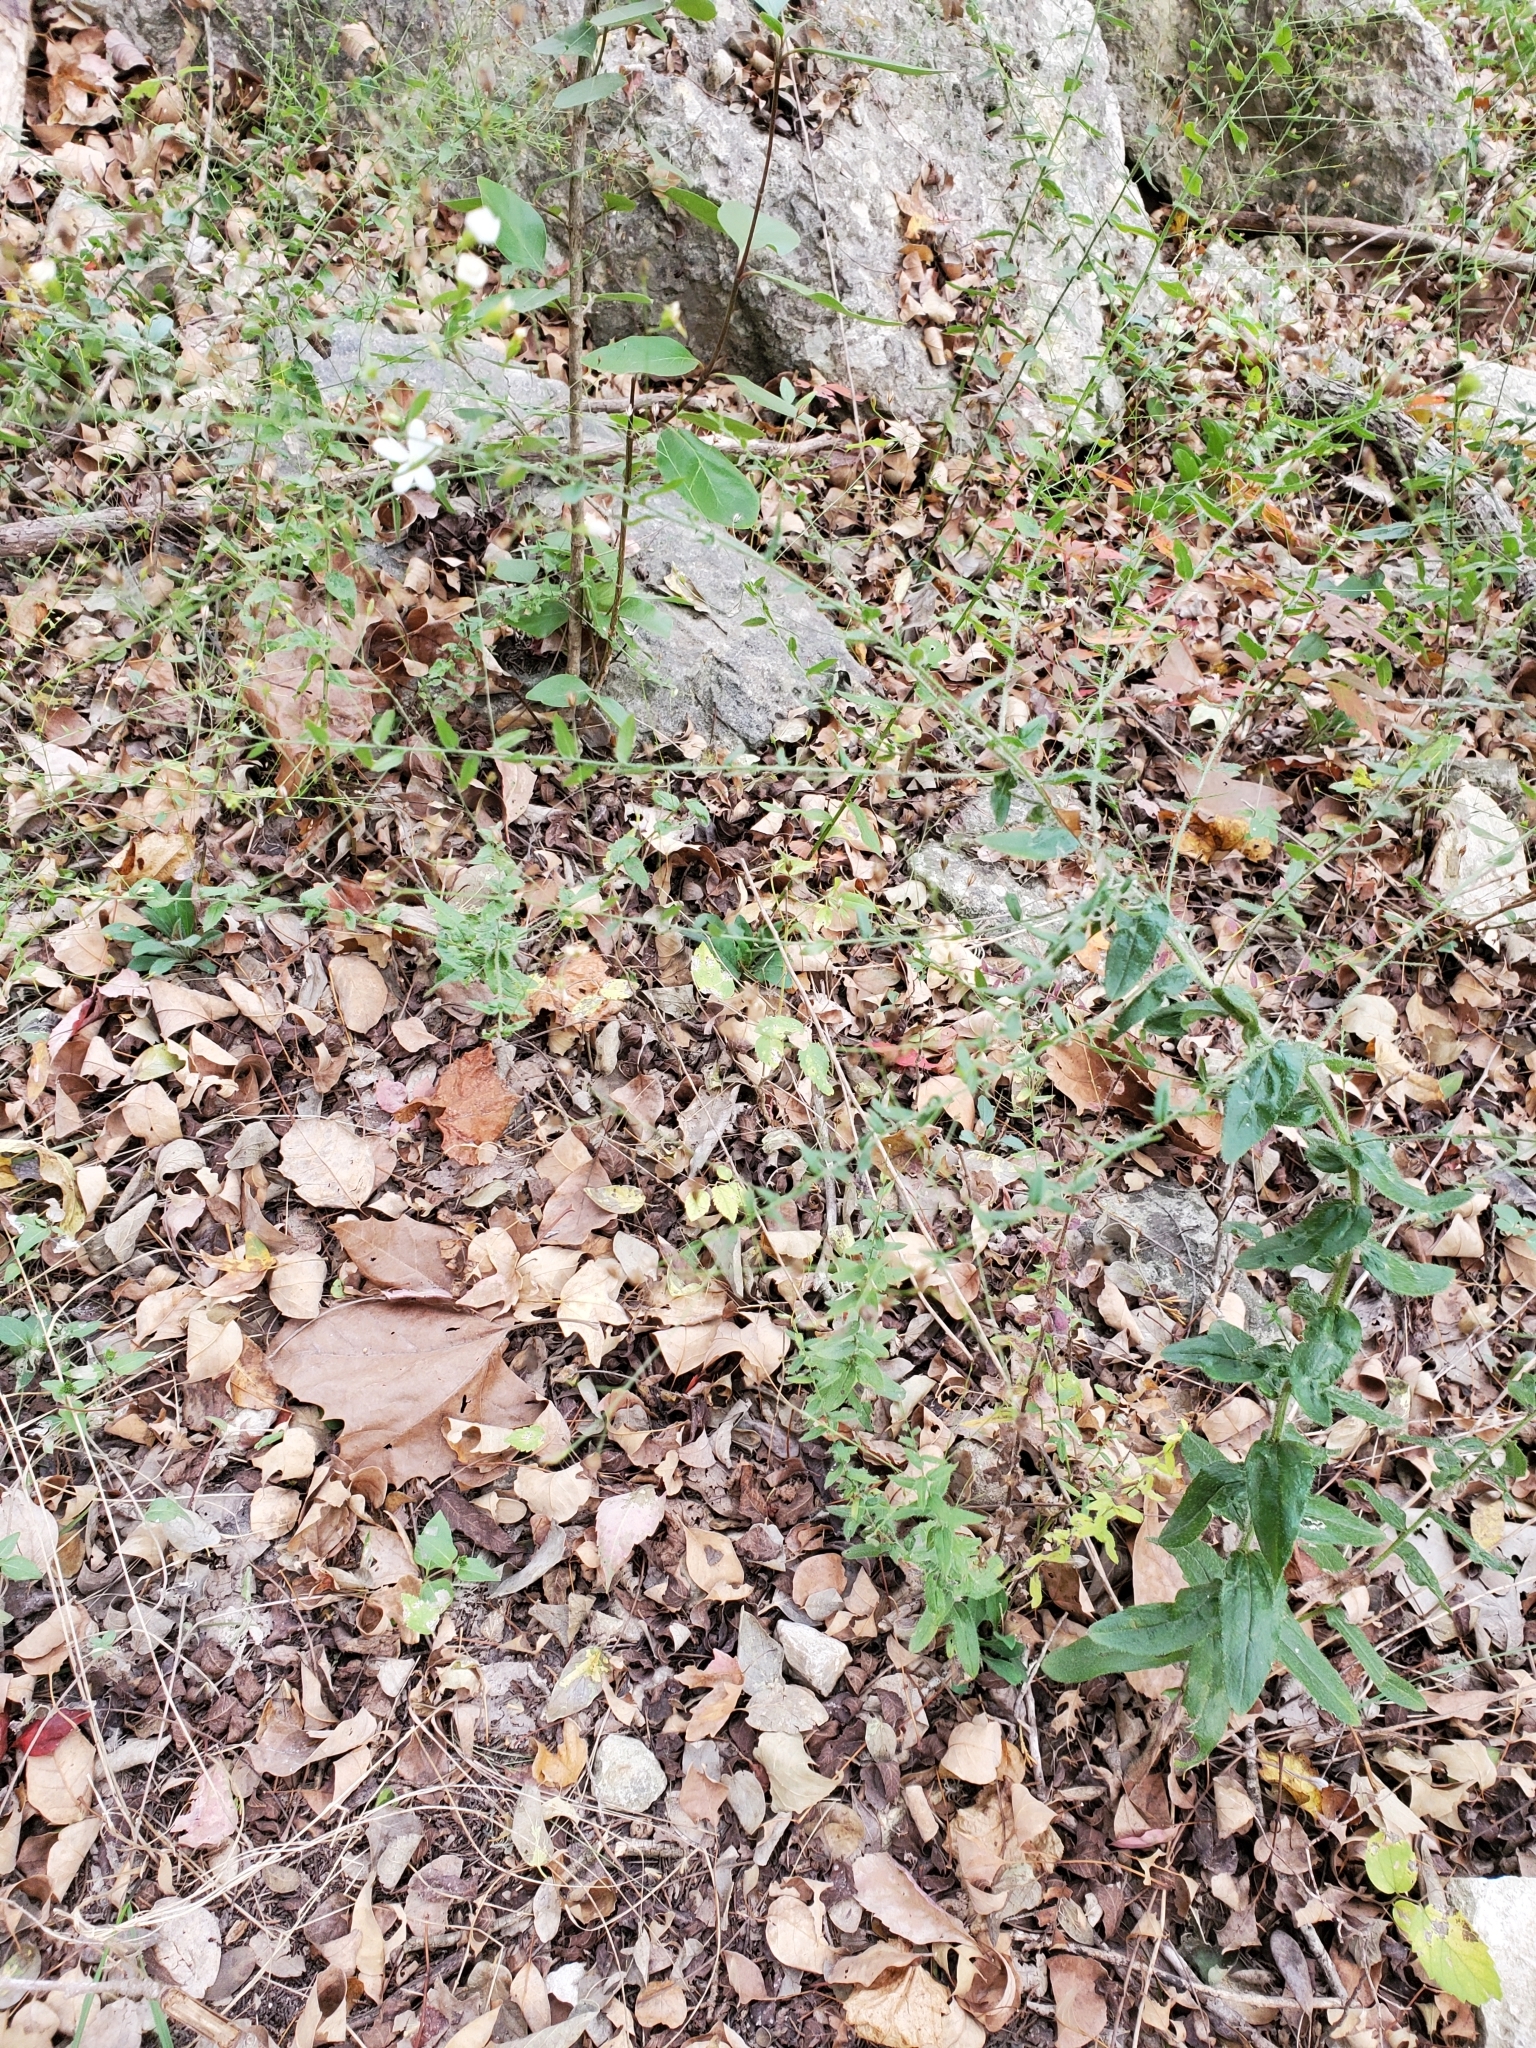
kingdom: Plantae
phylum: Tracheophyta
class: Magnoliopsida
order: Asterales
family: Asteraceae
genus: Chaetopappa
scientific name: Chaetopappa effusa
